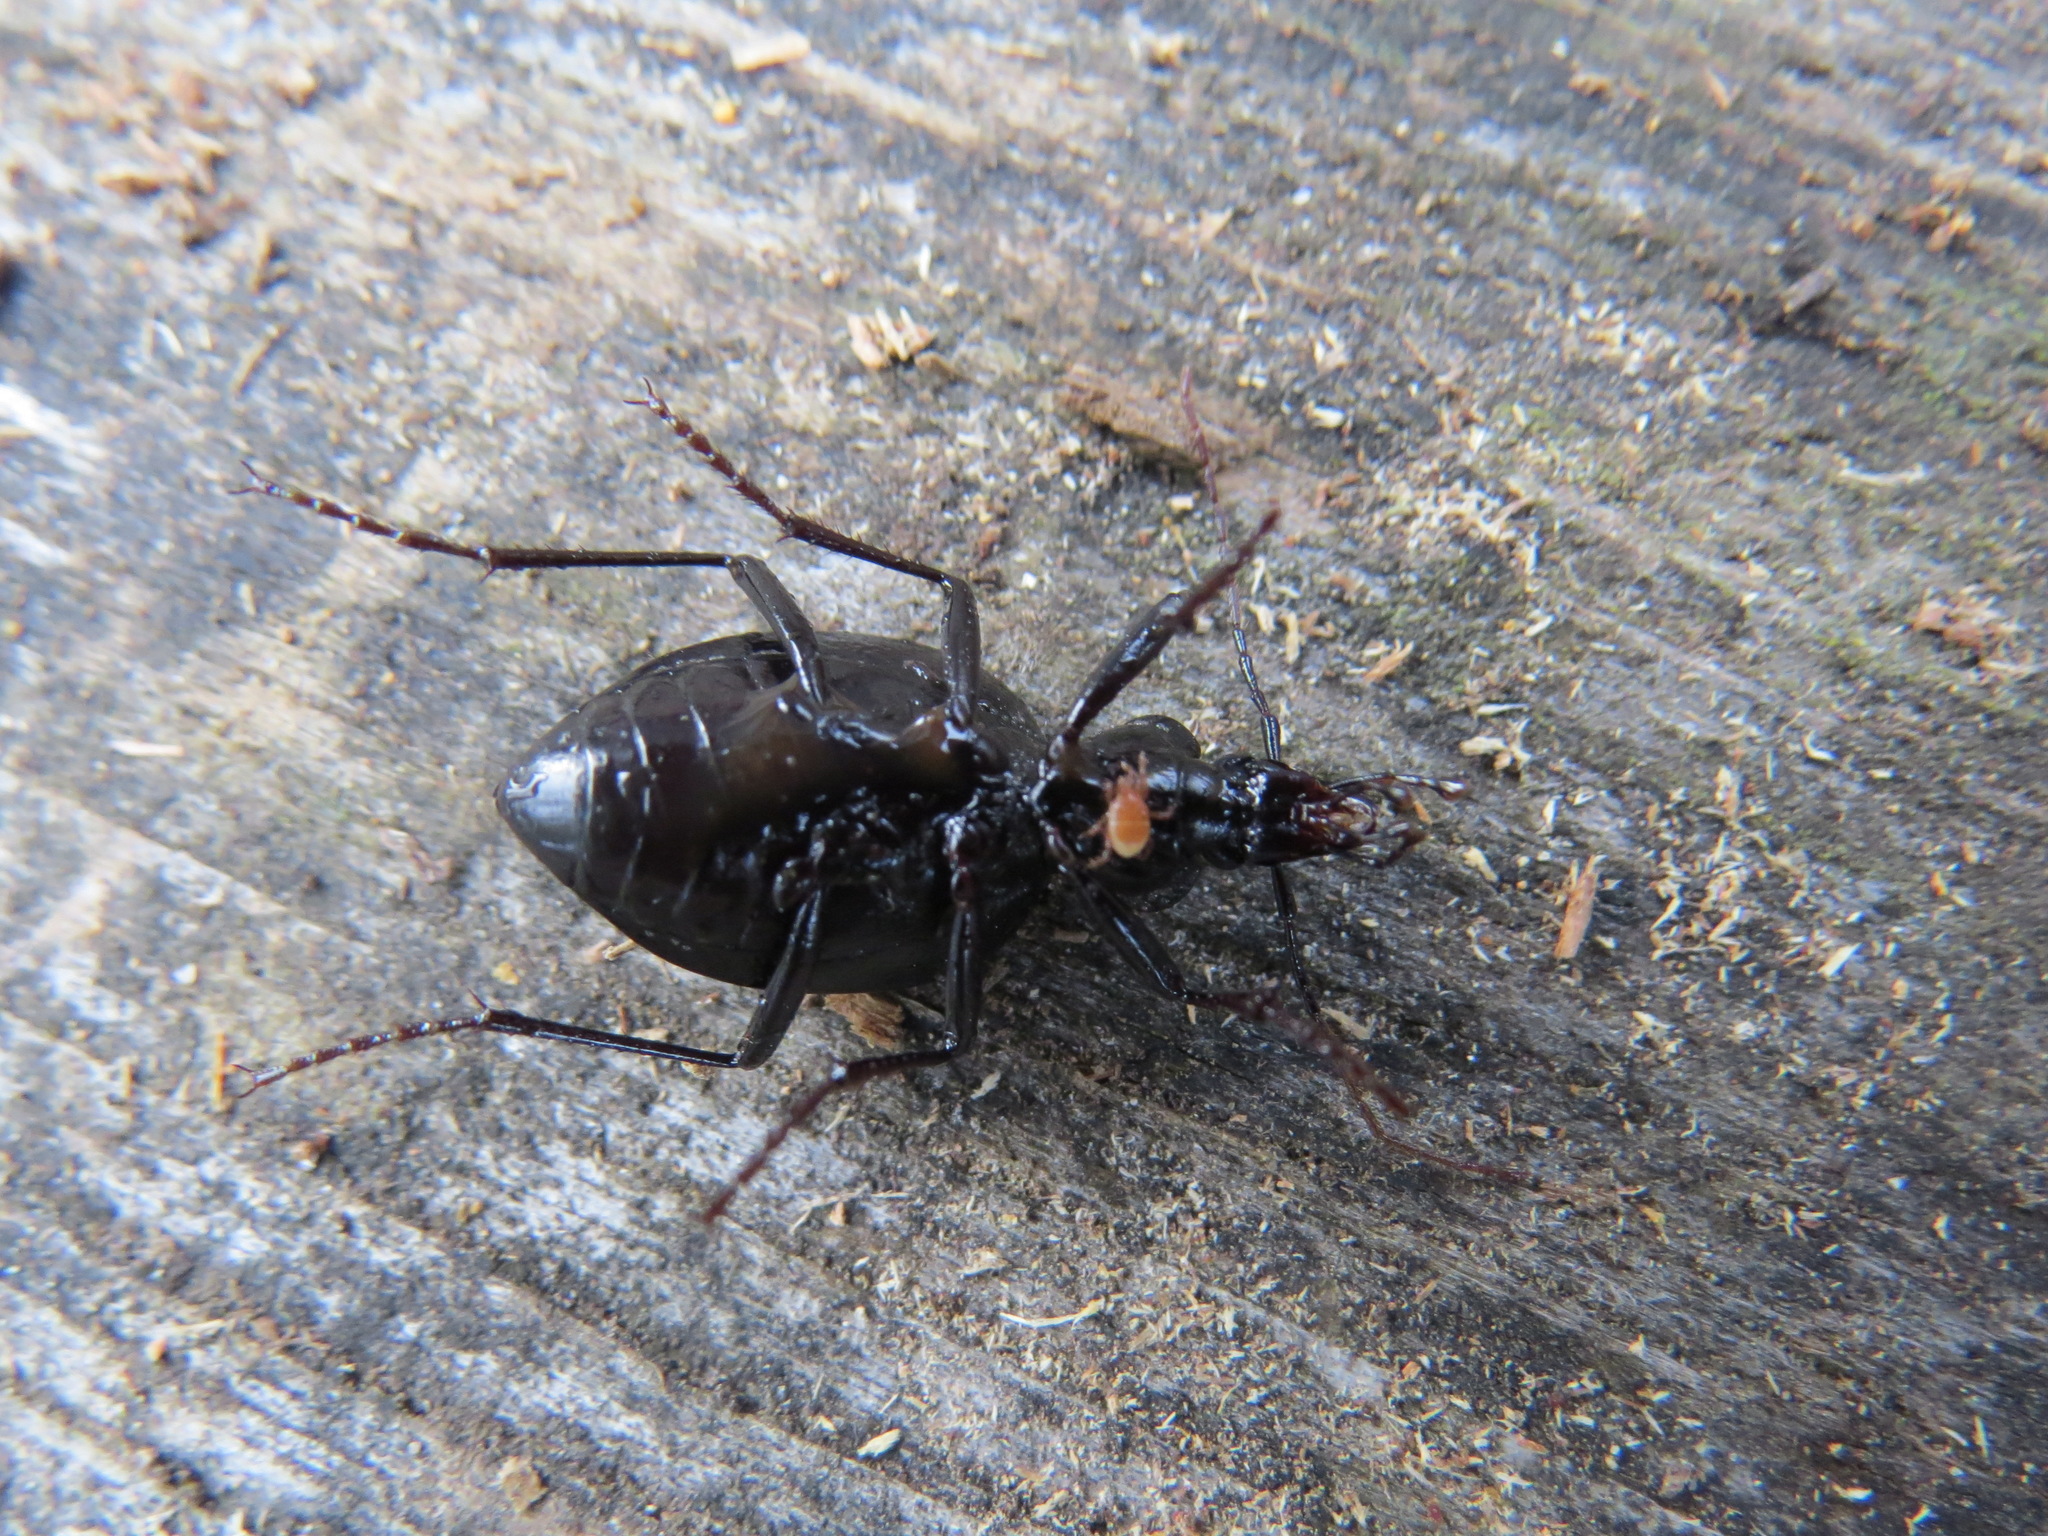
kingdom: Animalia
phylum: Arthropoda
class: Insecta
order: Coleoptera
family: Carabidae
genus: Scaphinotus
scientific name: Scaphinotus interruptus
